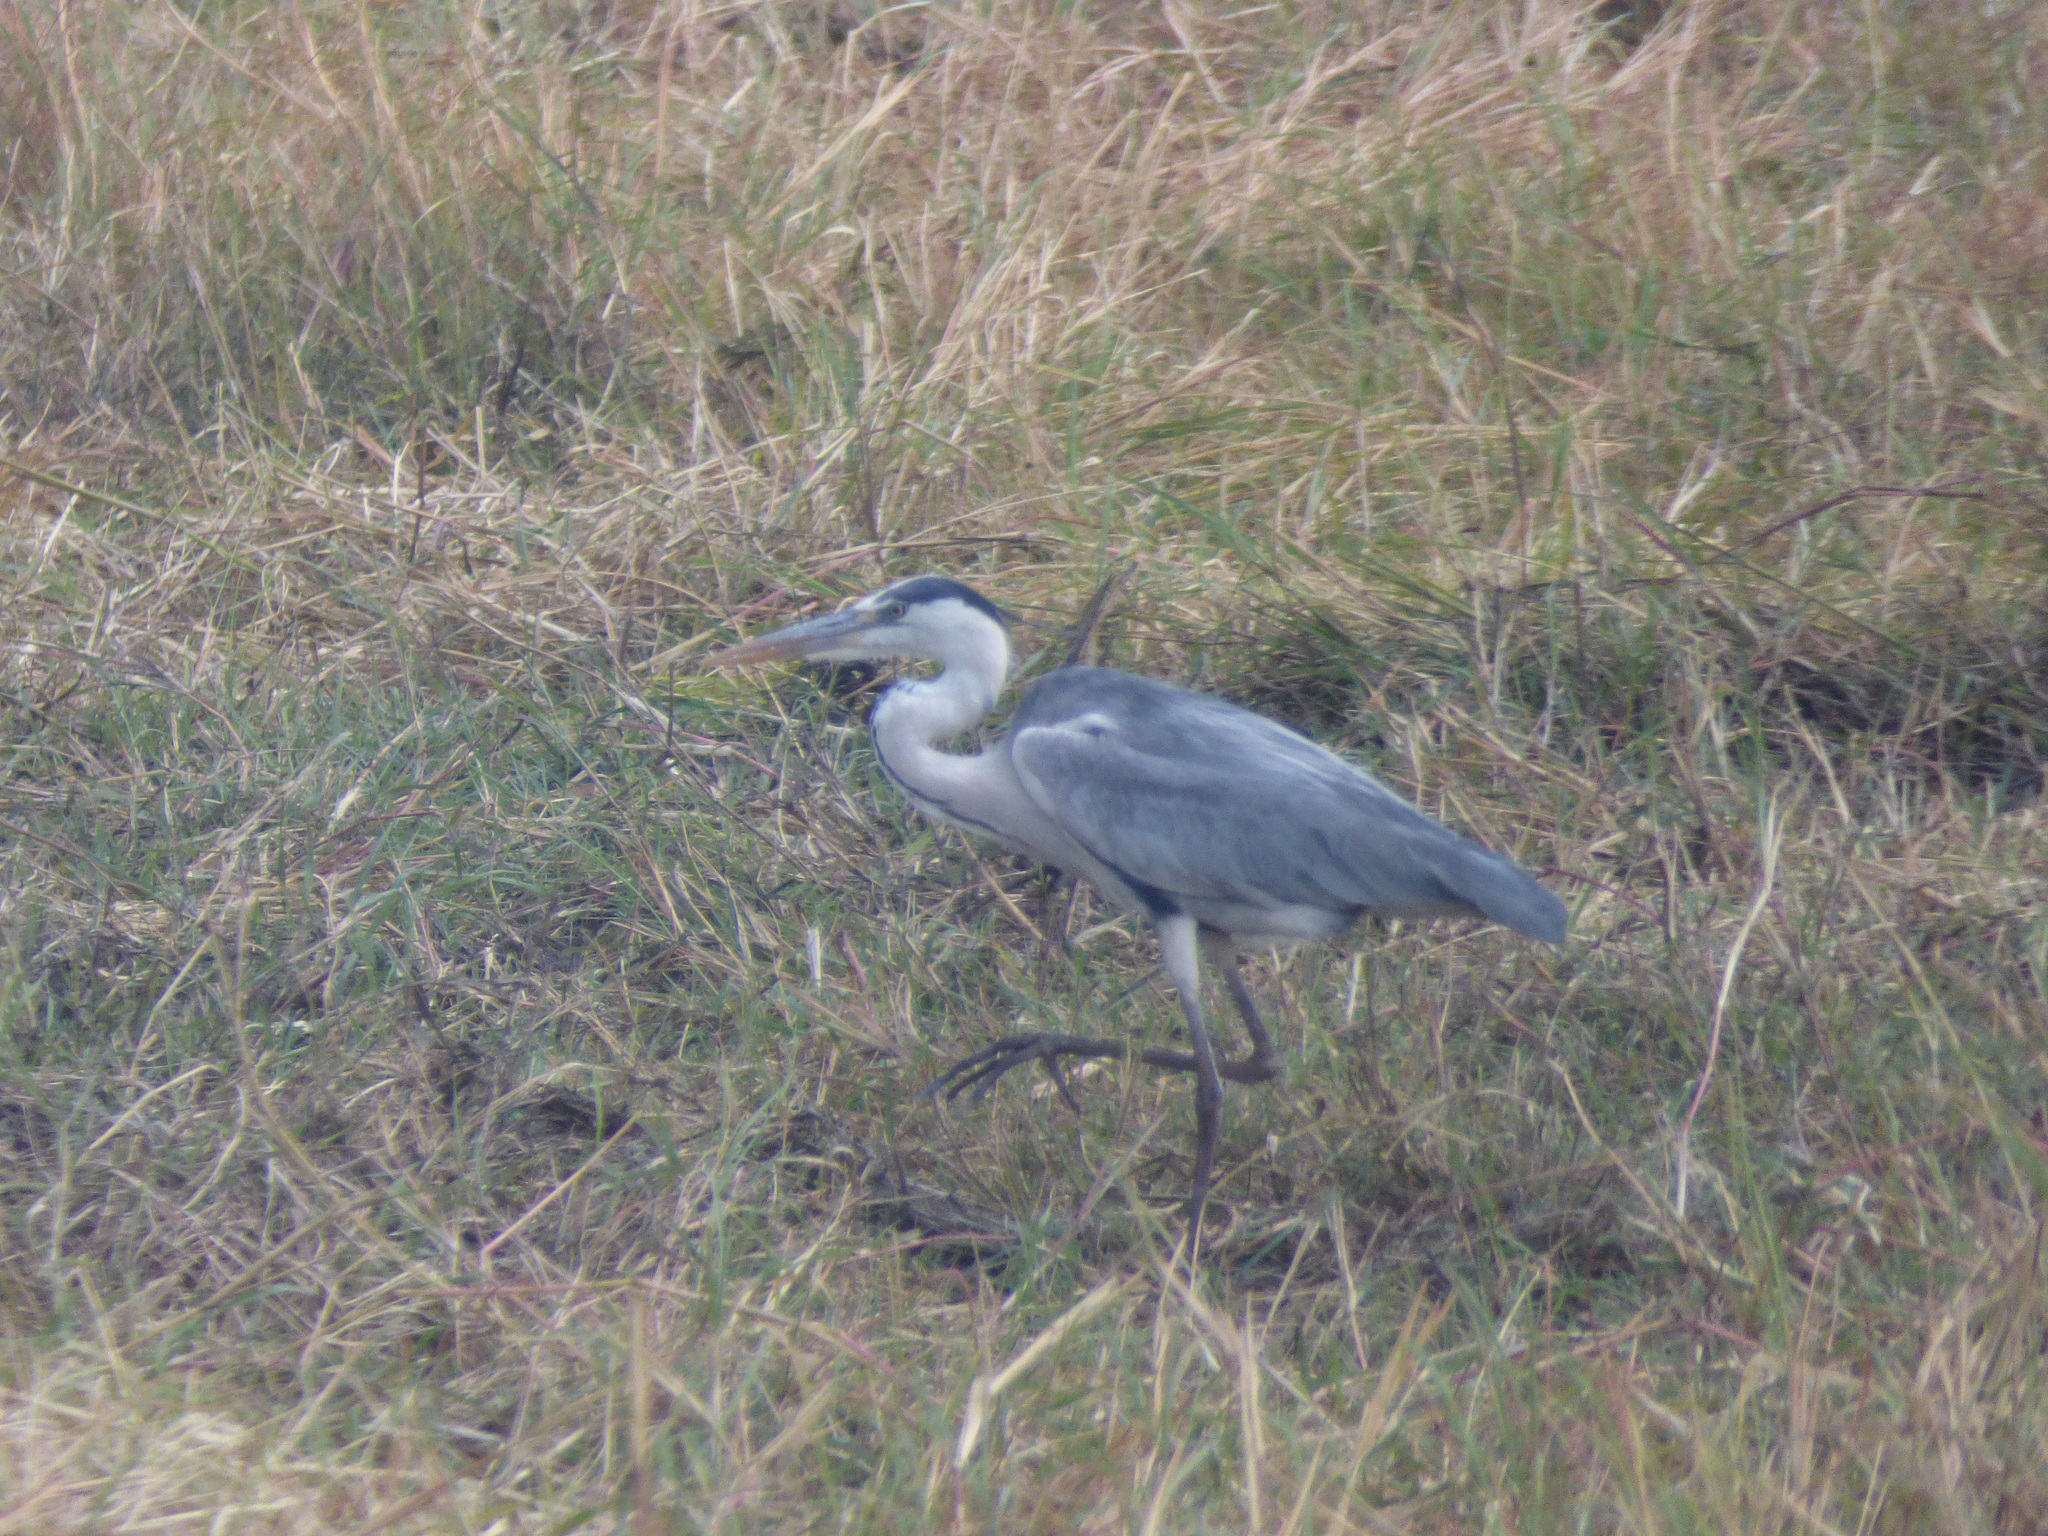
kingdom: Animalia
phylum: Chordata
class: Aves
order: Pelecaniformes
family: Ardeidae
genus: Ardea
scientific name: Ardea cinerea
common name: Grey heron
